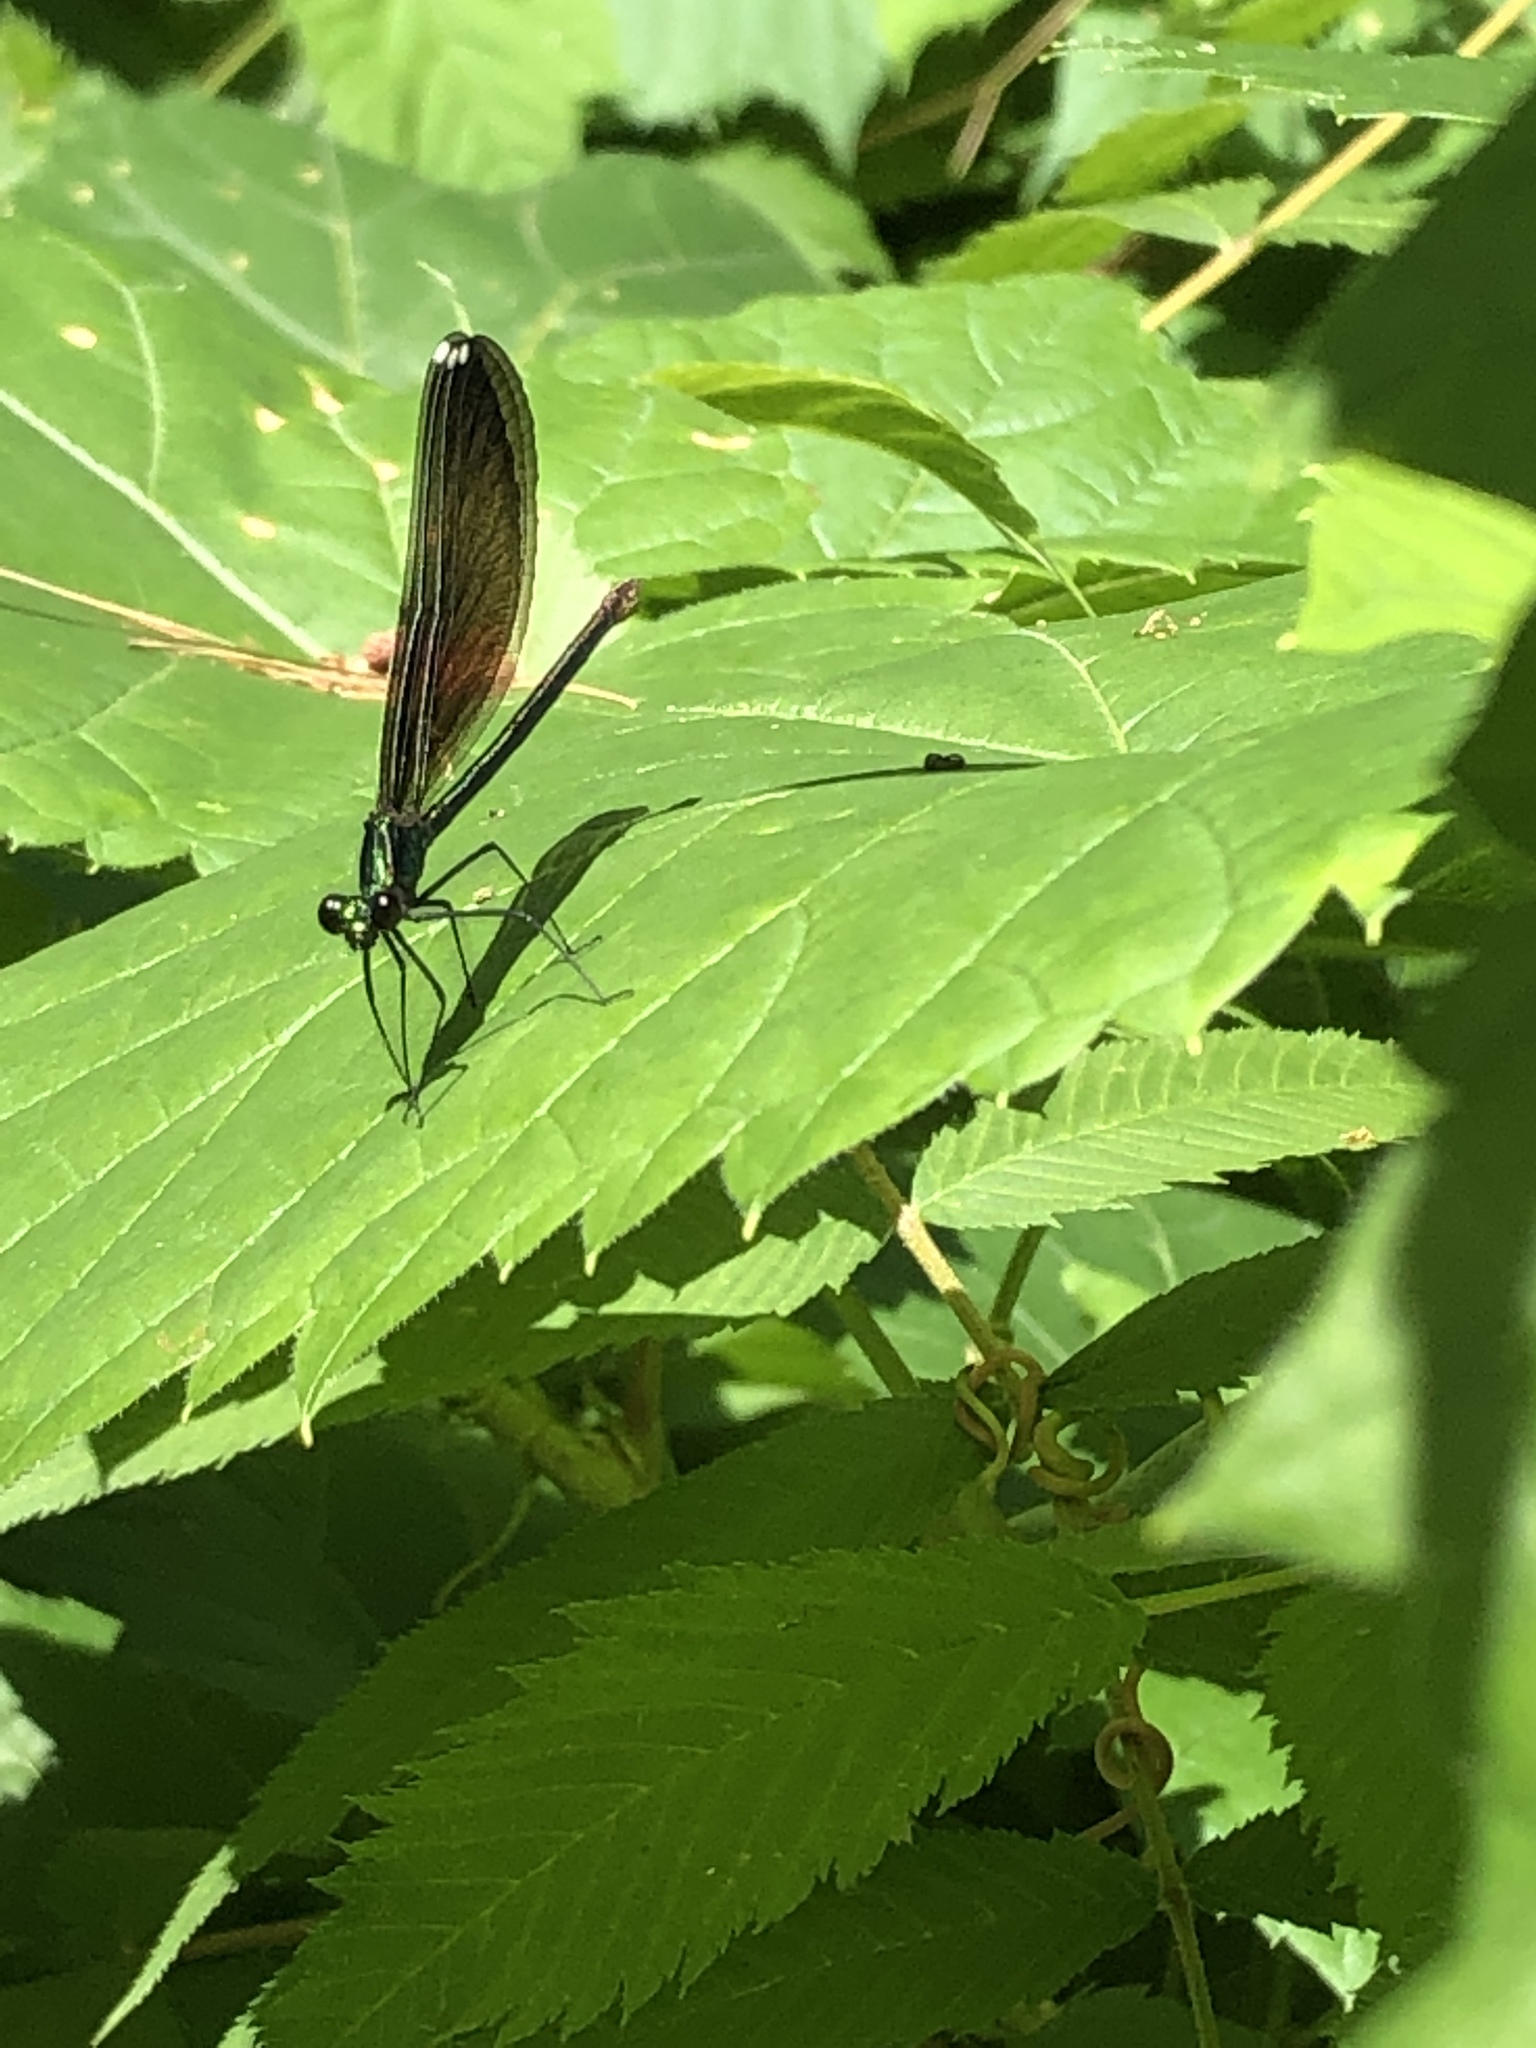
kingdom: Animalia
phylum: Arthropoda
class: Insecta
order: Odonata
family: Calopterygidae
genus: Calopteryx
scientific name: Calopteryx maculata
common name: Ebony jewelwing
